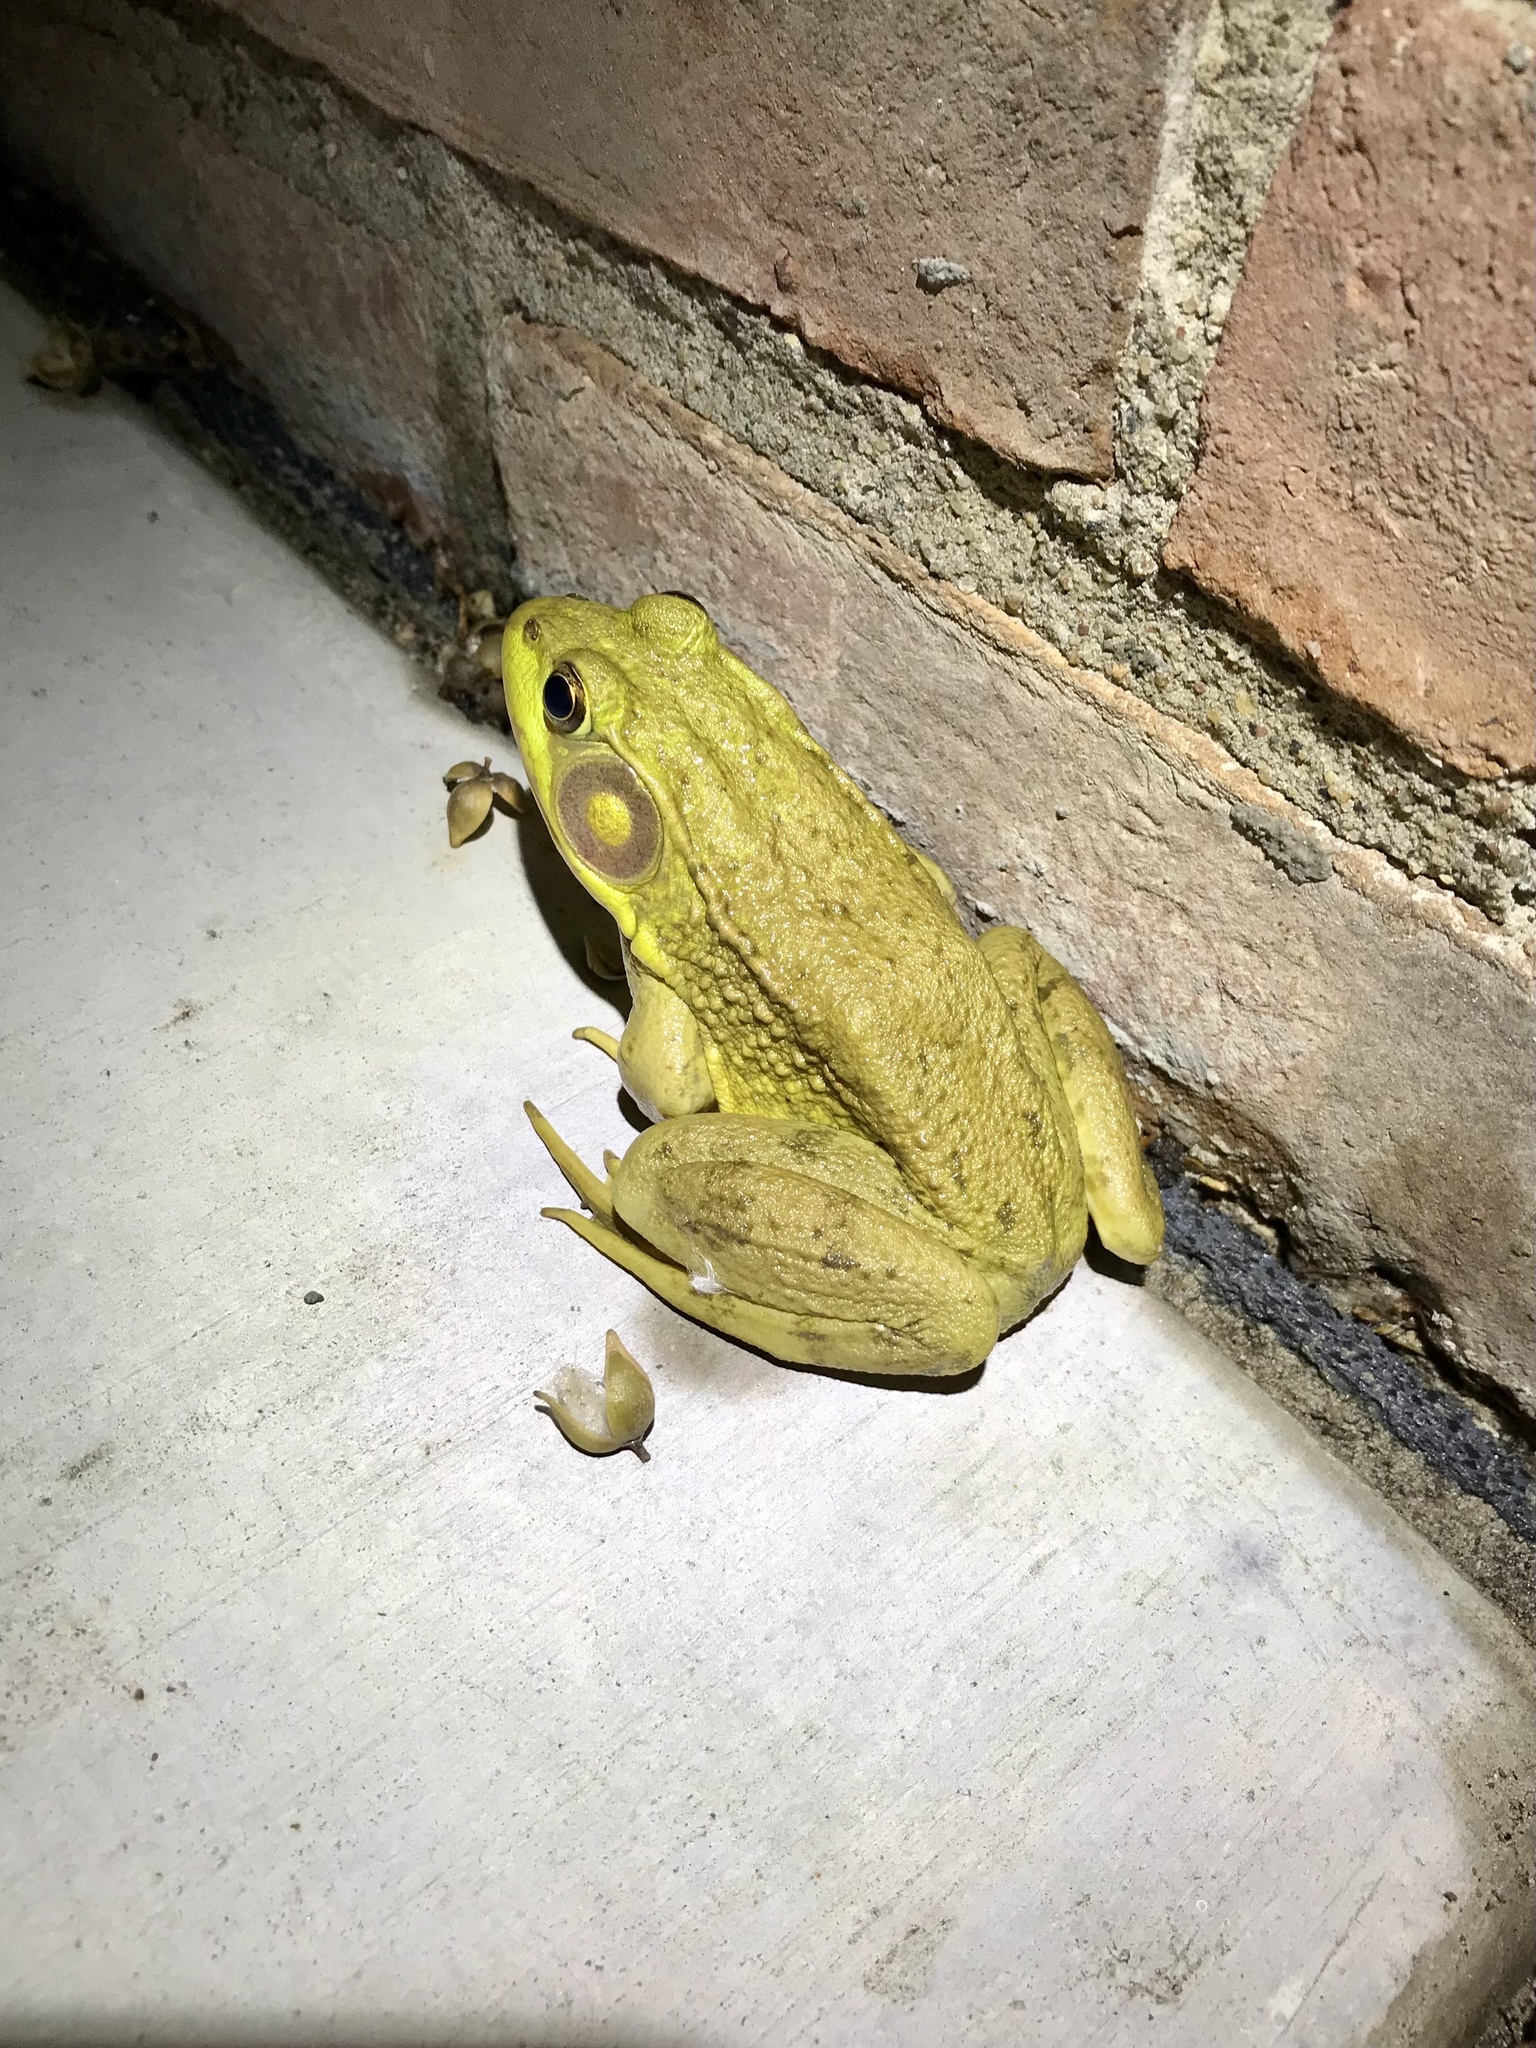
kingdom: Animalia
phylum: Chordata
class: Amphibia
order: Anura
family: Ranidae
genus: Lithobates
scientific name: Lithobates clamitans
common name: Green frog
